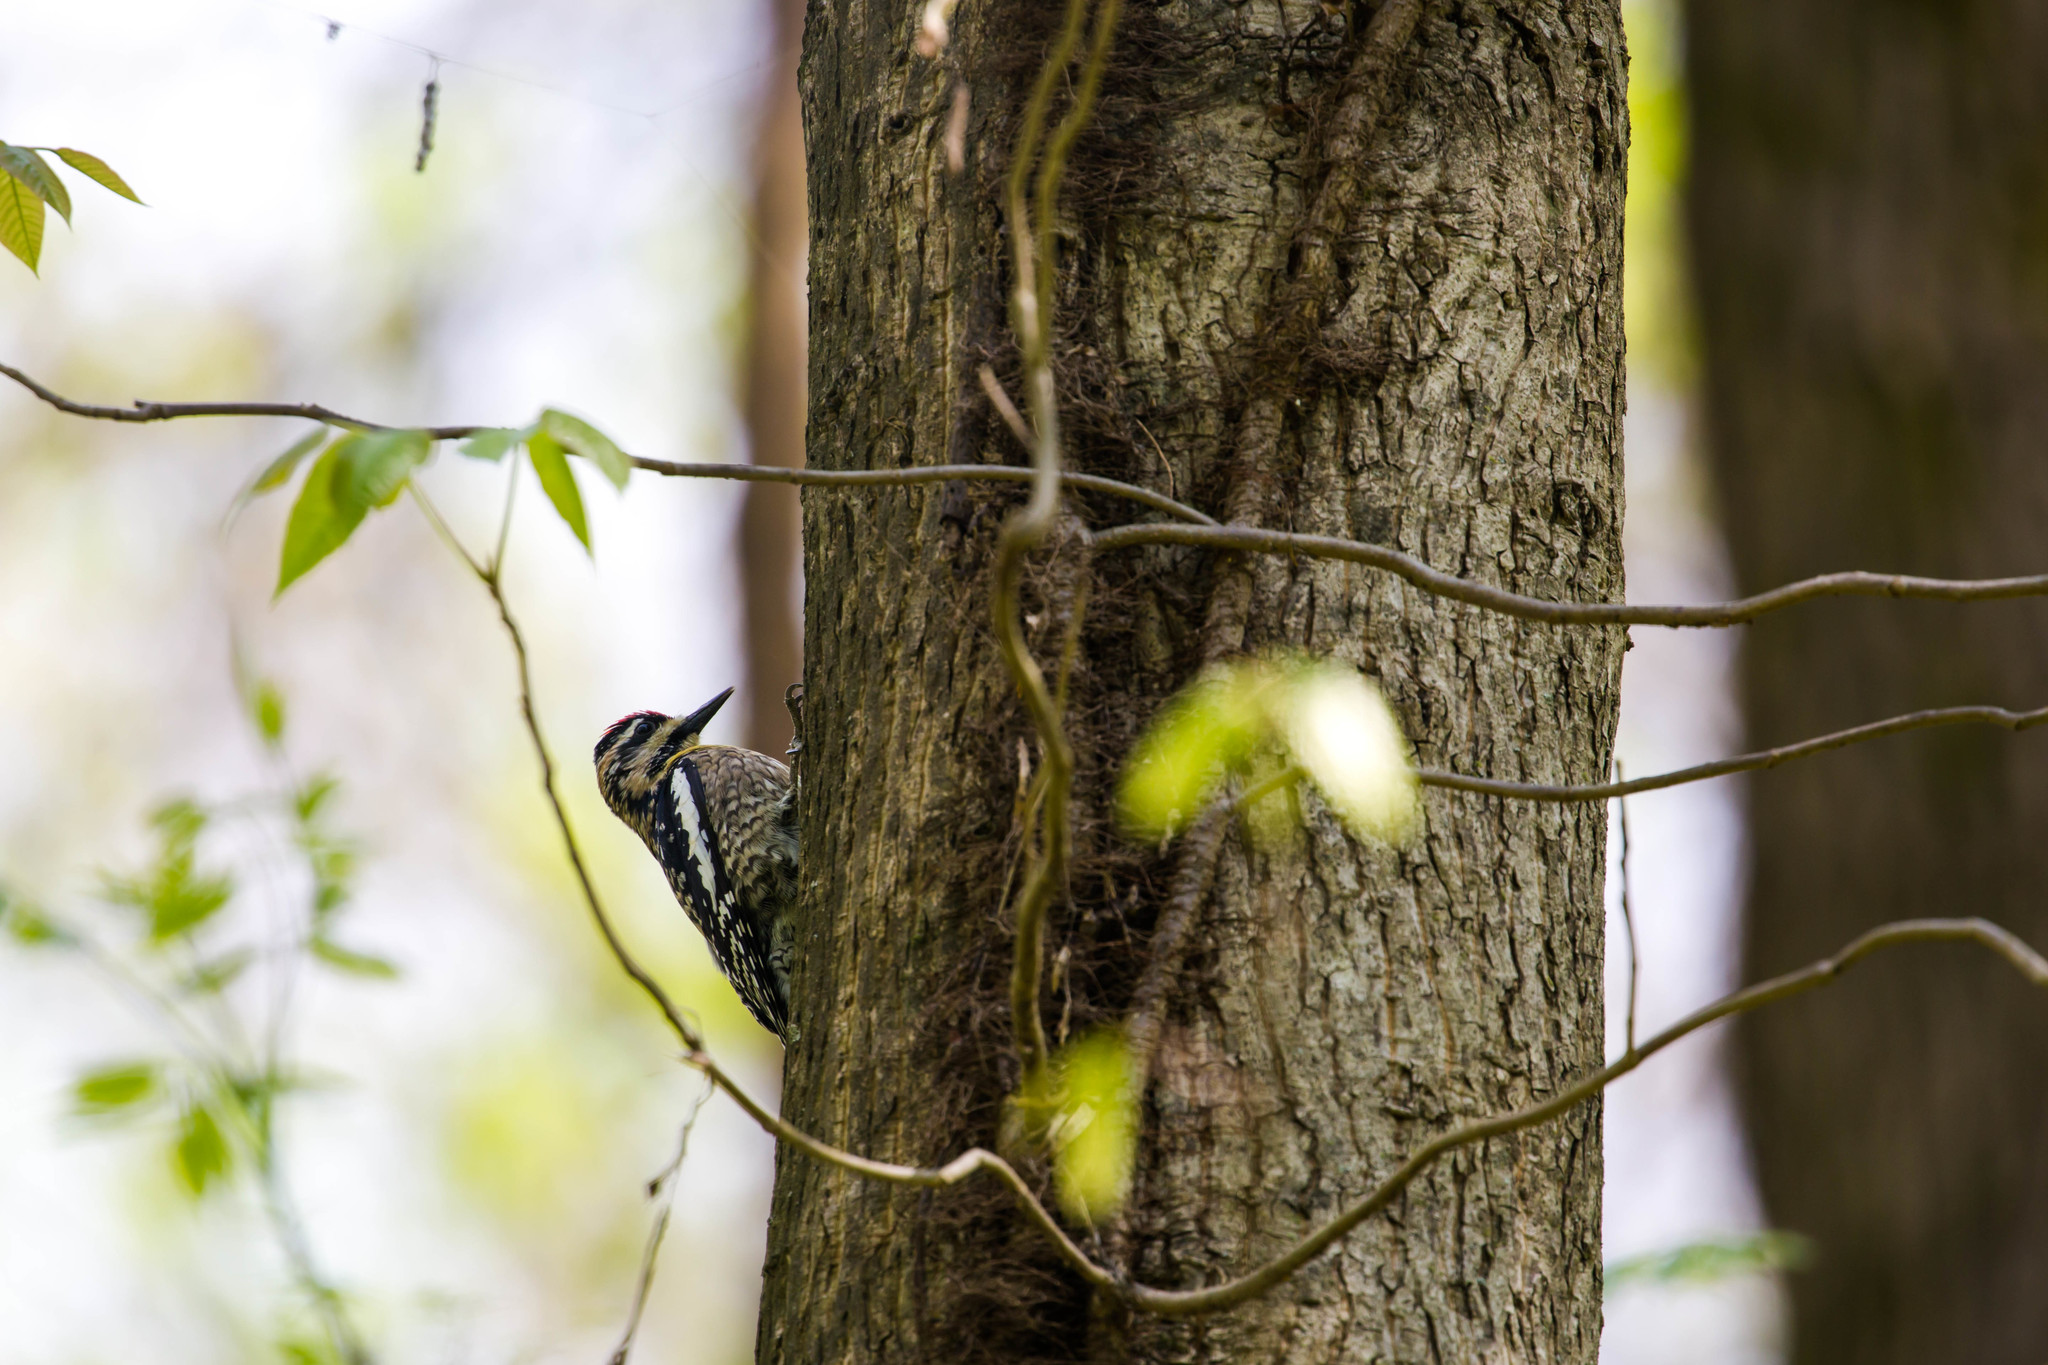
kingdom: Animalia
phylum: Chordata
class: Aves
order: Piciformes
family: Picidae
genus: Sphyrapicus
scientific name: Sphyrapicus varius
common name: Yellow-bellied sapsucker
